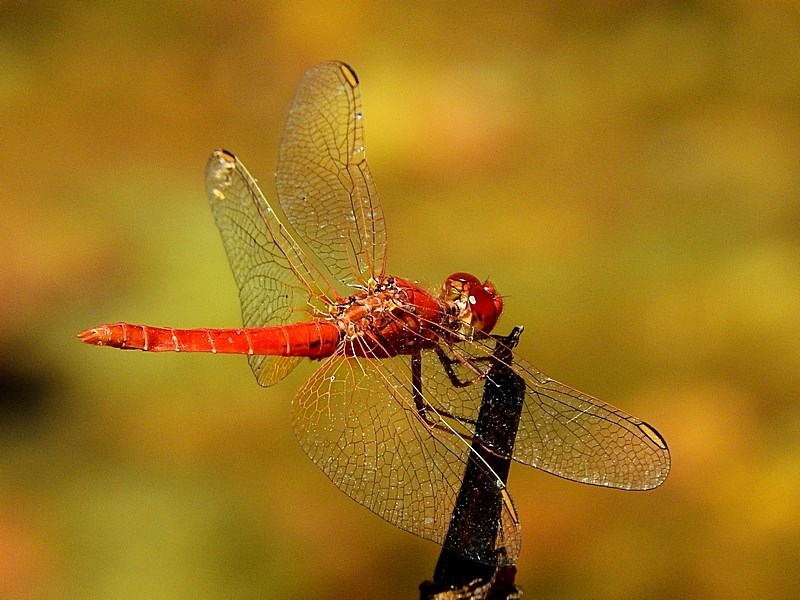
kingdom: Animalia
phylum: Arthropoda
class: Insecta
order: Odonata
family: Libellulidae
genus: Diplacodes
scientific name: Diplacodes haematodes
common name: Scarlet percher
